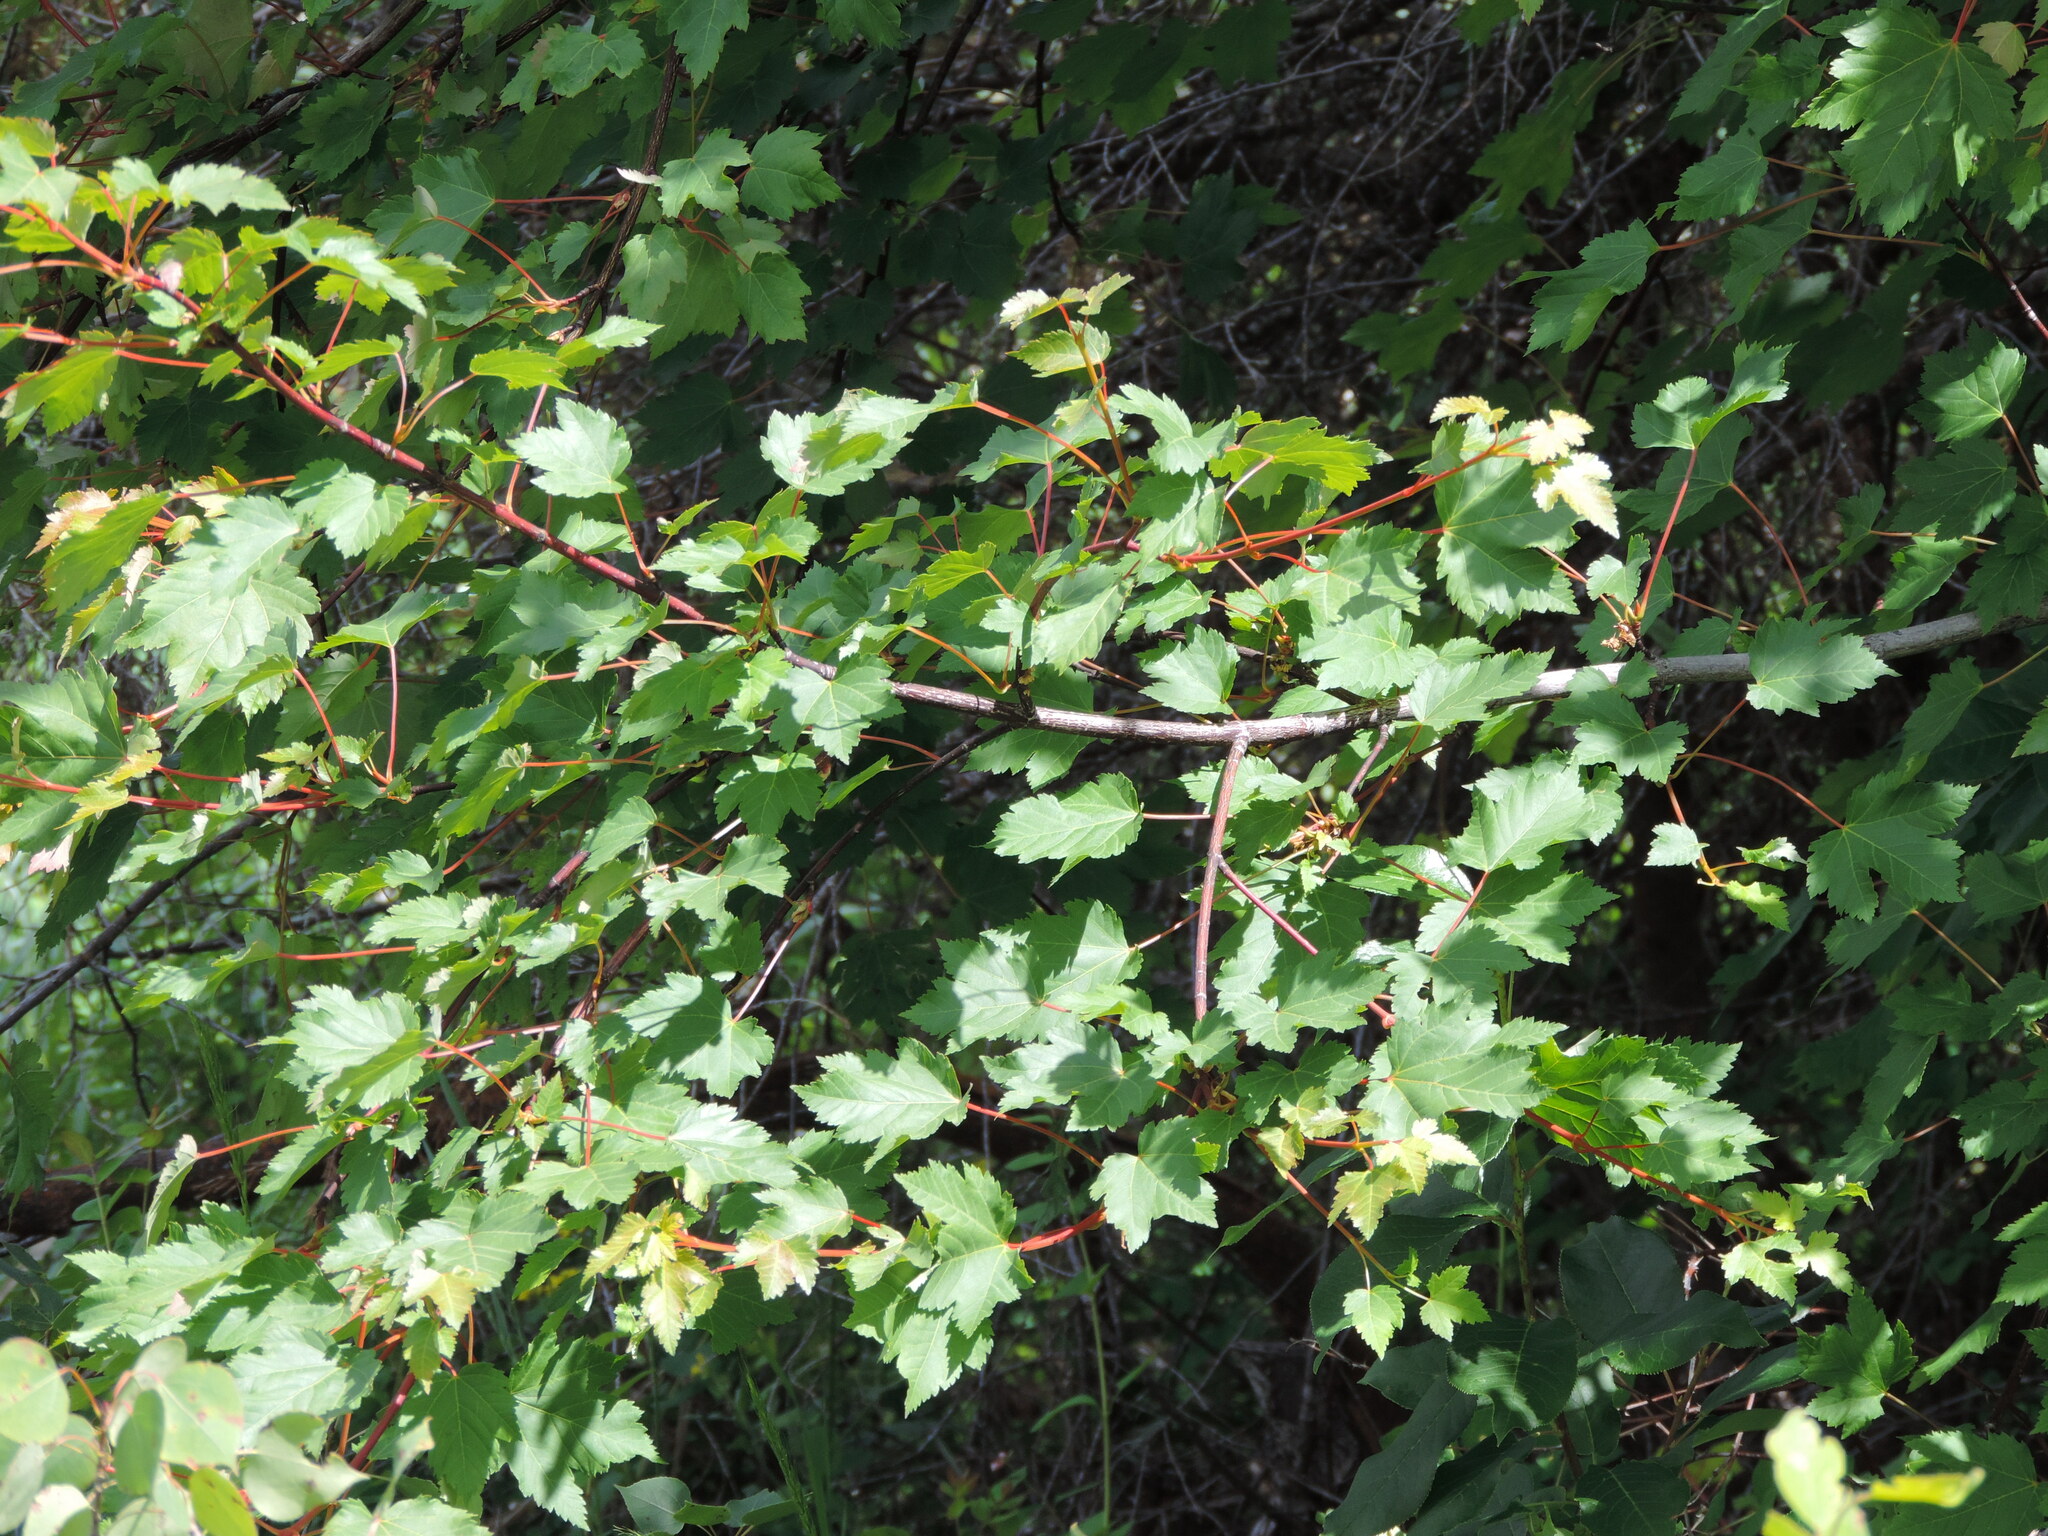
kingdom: Plantae
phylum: Tracheophyta
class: Magnoliopsida
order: Sapindales
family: Sapindaceae
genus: Acer
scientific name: Acer glabrum
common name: Rocky mountain maple
